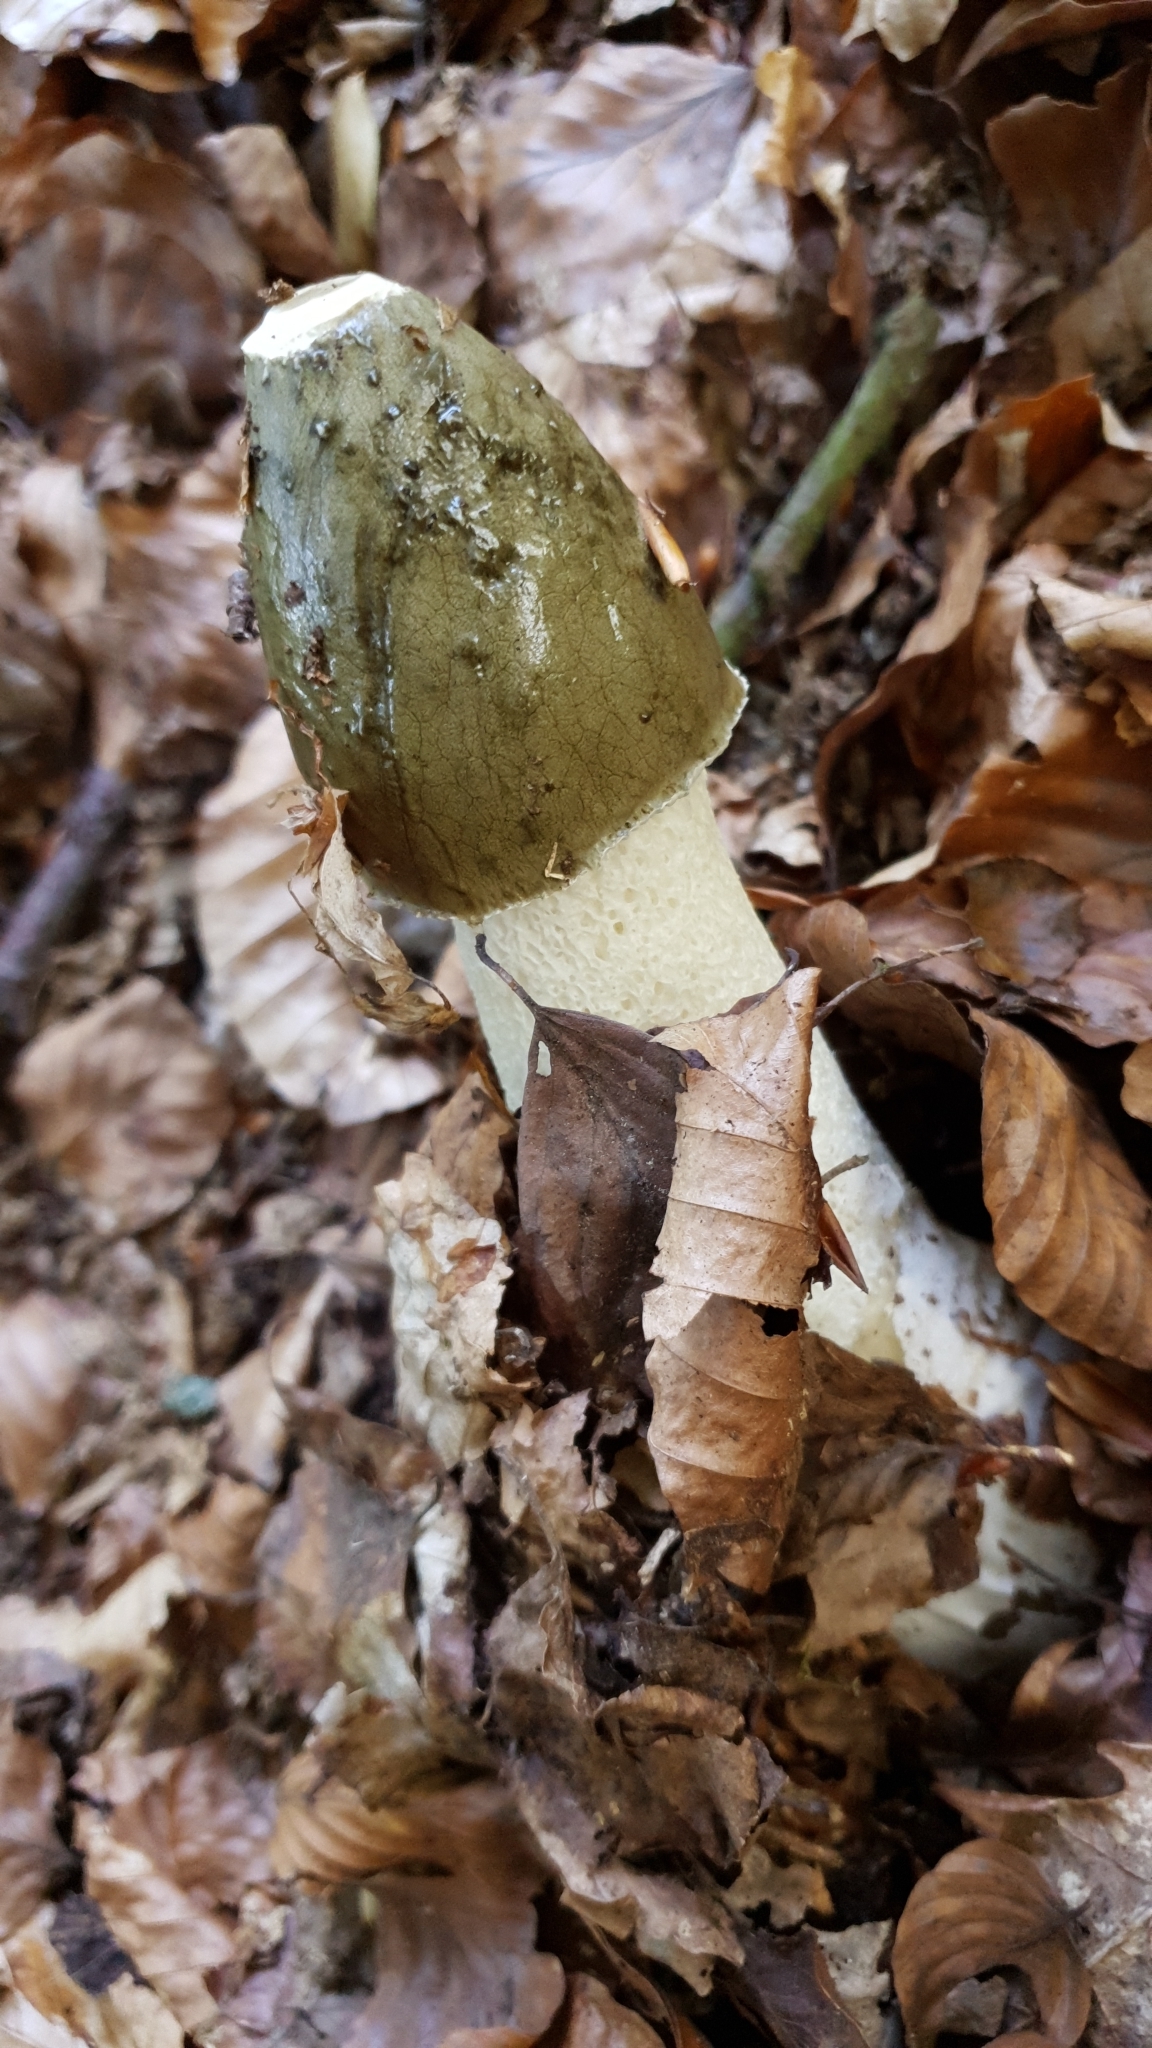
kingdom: Fungi
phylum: Basidiomycota
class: Agaricomycetes
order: Phallales
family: Phallaceae
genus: Phallus
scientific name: Phallus impudicus
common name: Common stinkhorn
